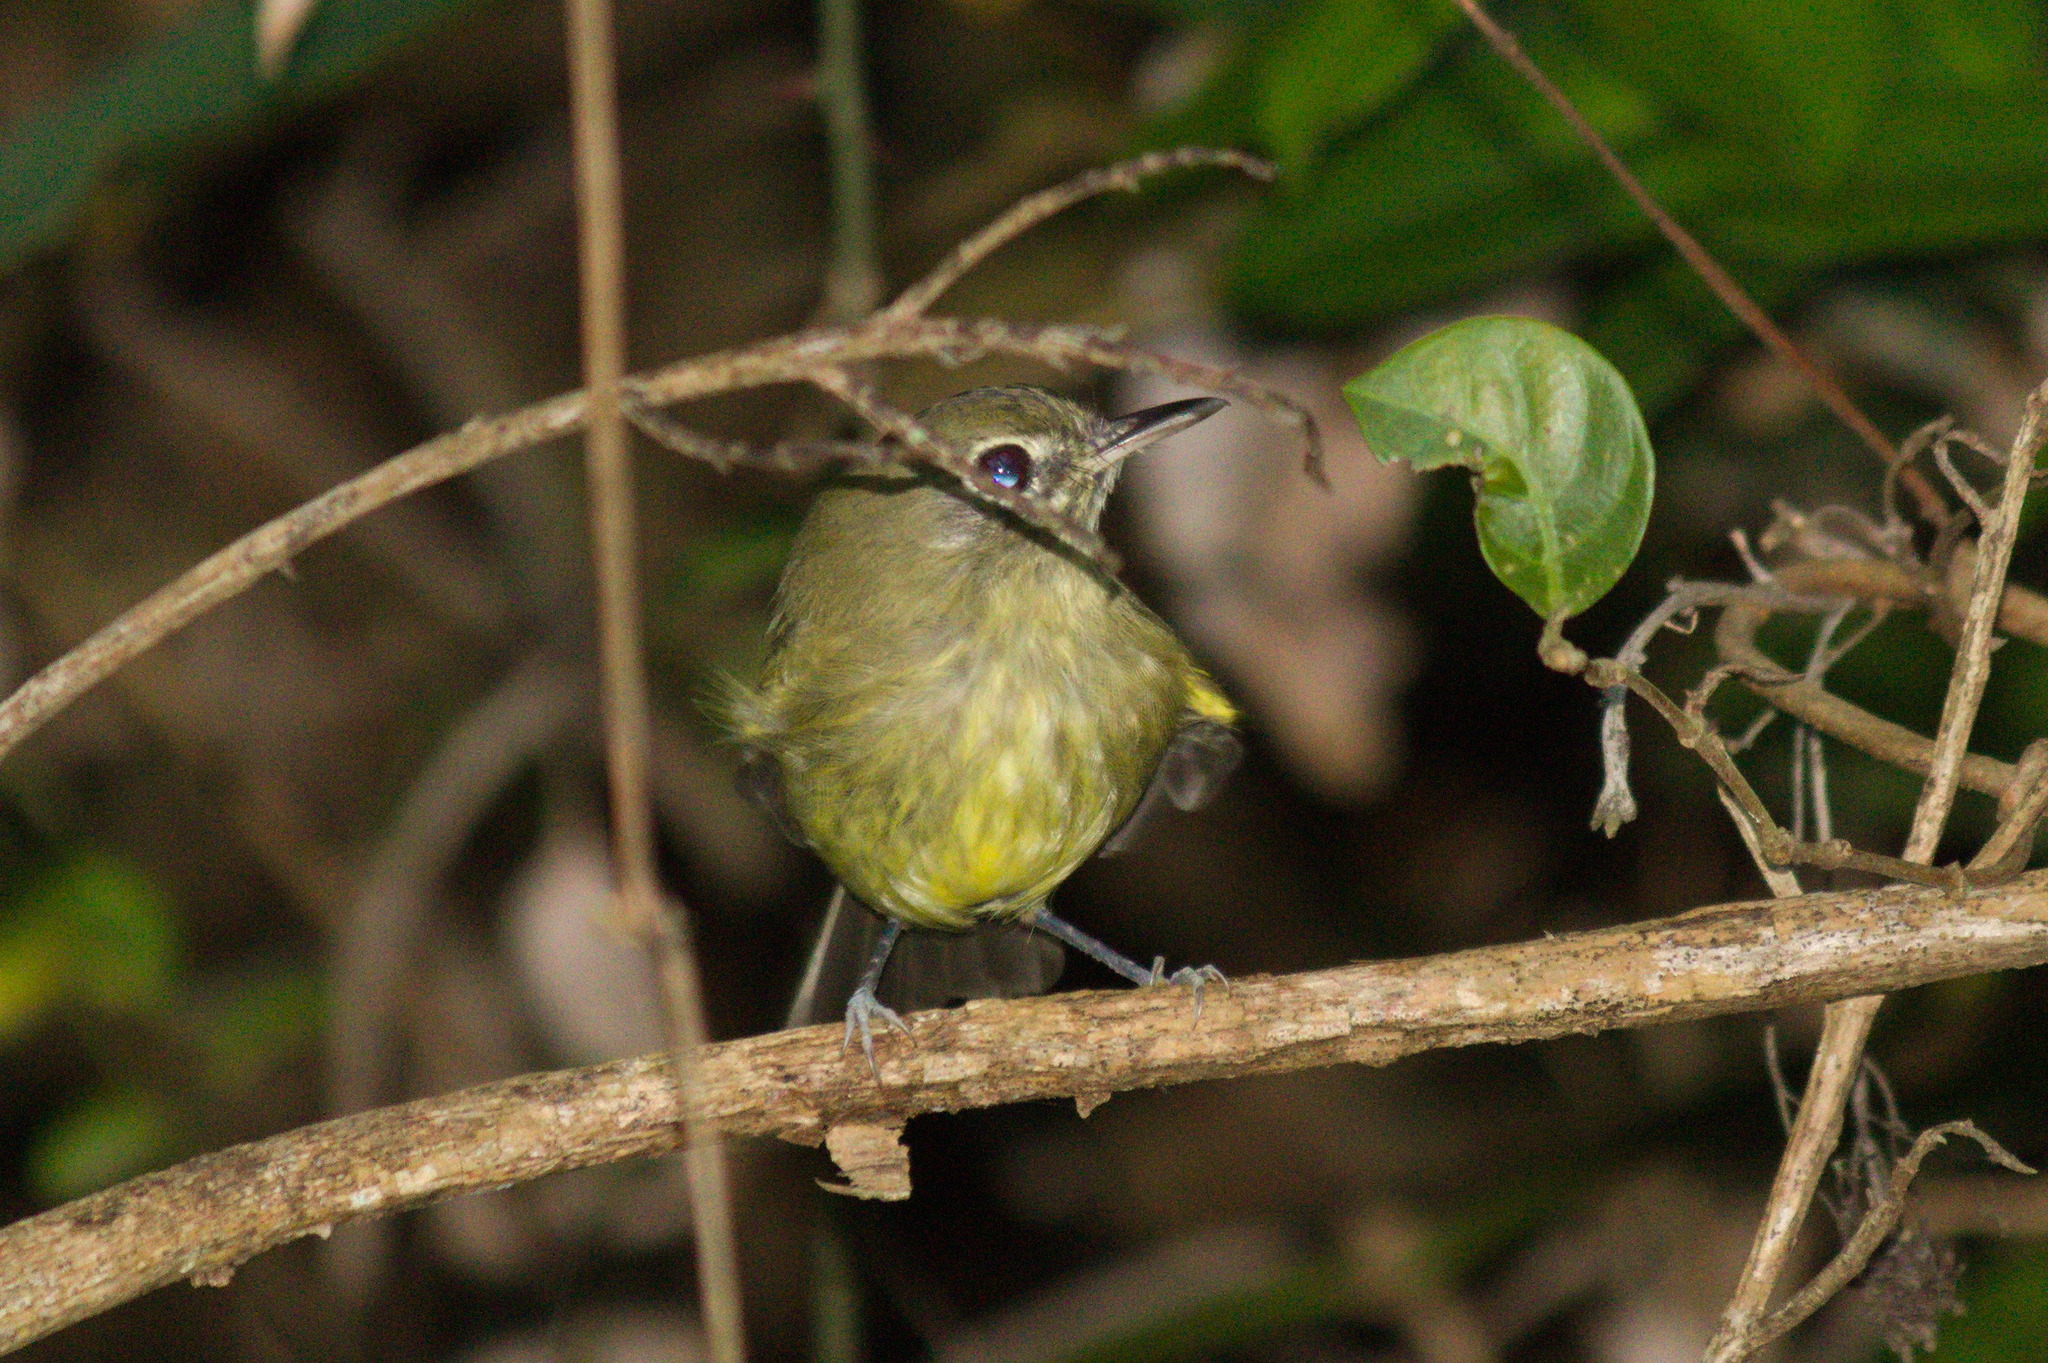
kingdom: Animalia
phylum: Chordata
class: Aves
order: Passeriformes
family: Tyrannidae
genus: Hemitriccus
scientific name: Hemitriccus orbitatus
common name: Eye-ringed tody-tyrant
